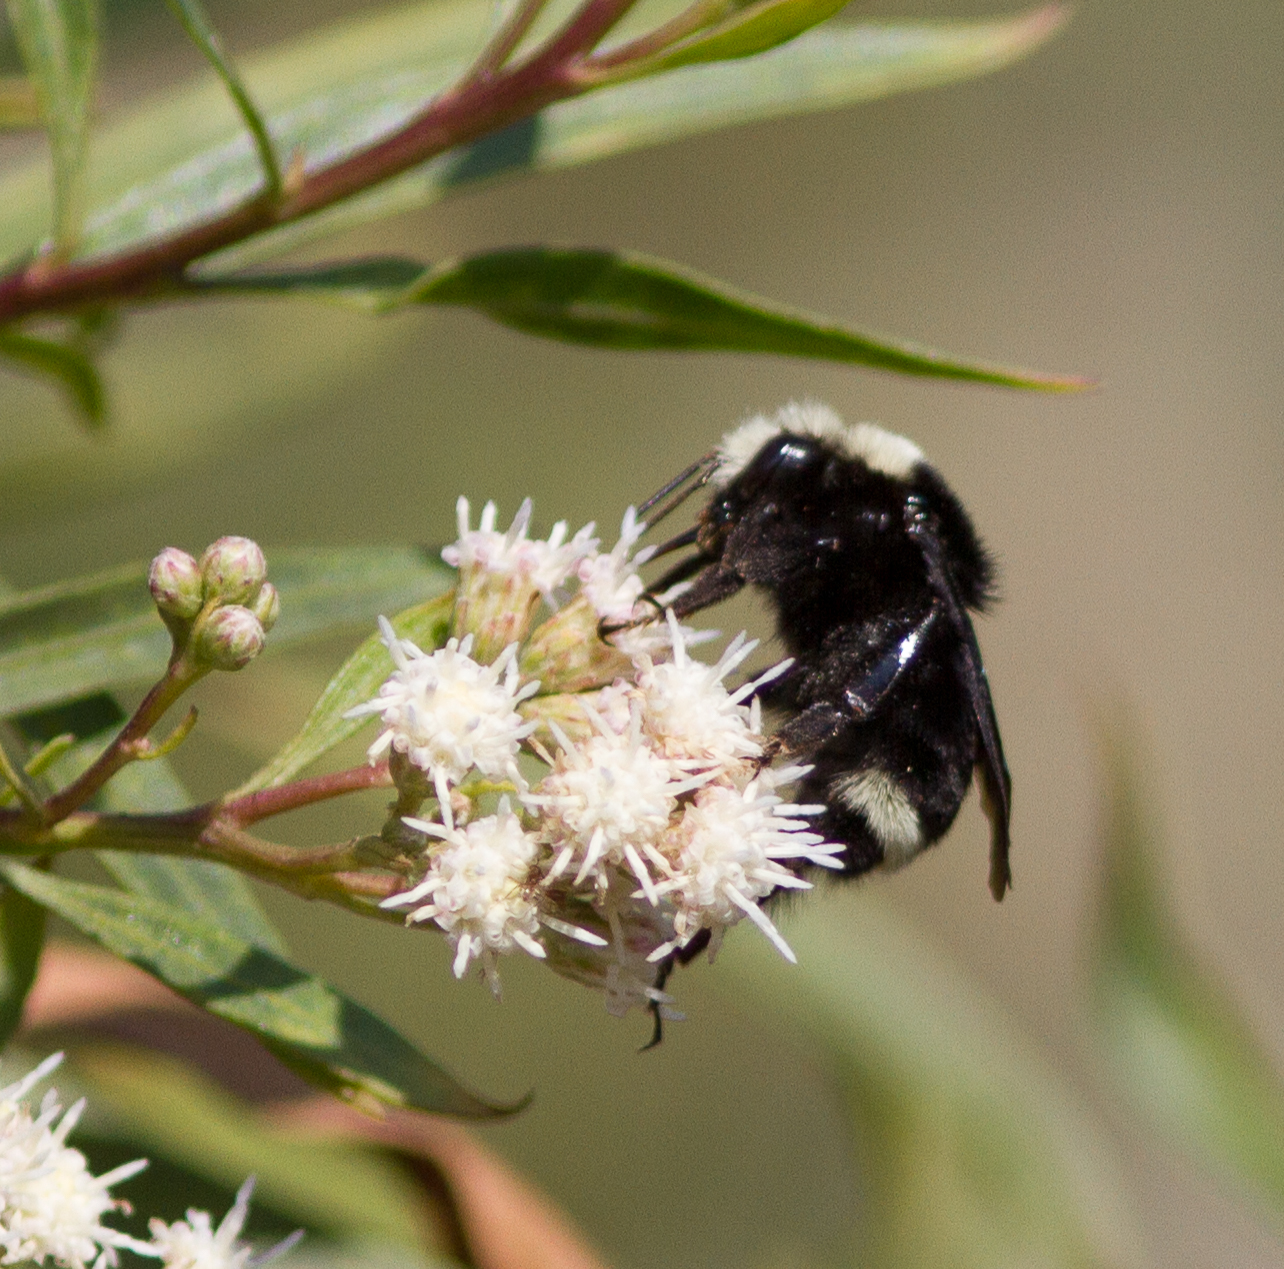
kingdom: Animalia
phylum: Arthropoda
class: Insecta
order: Hymenoptera
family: Apidae
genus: Bombus
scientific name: Bombus vosnesenskii
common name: Vosnesensky bumble bee
